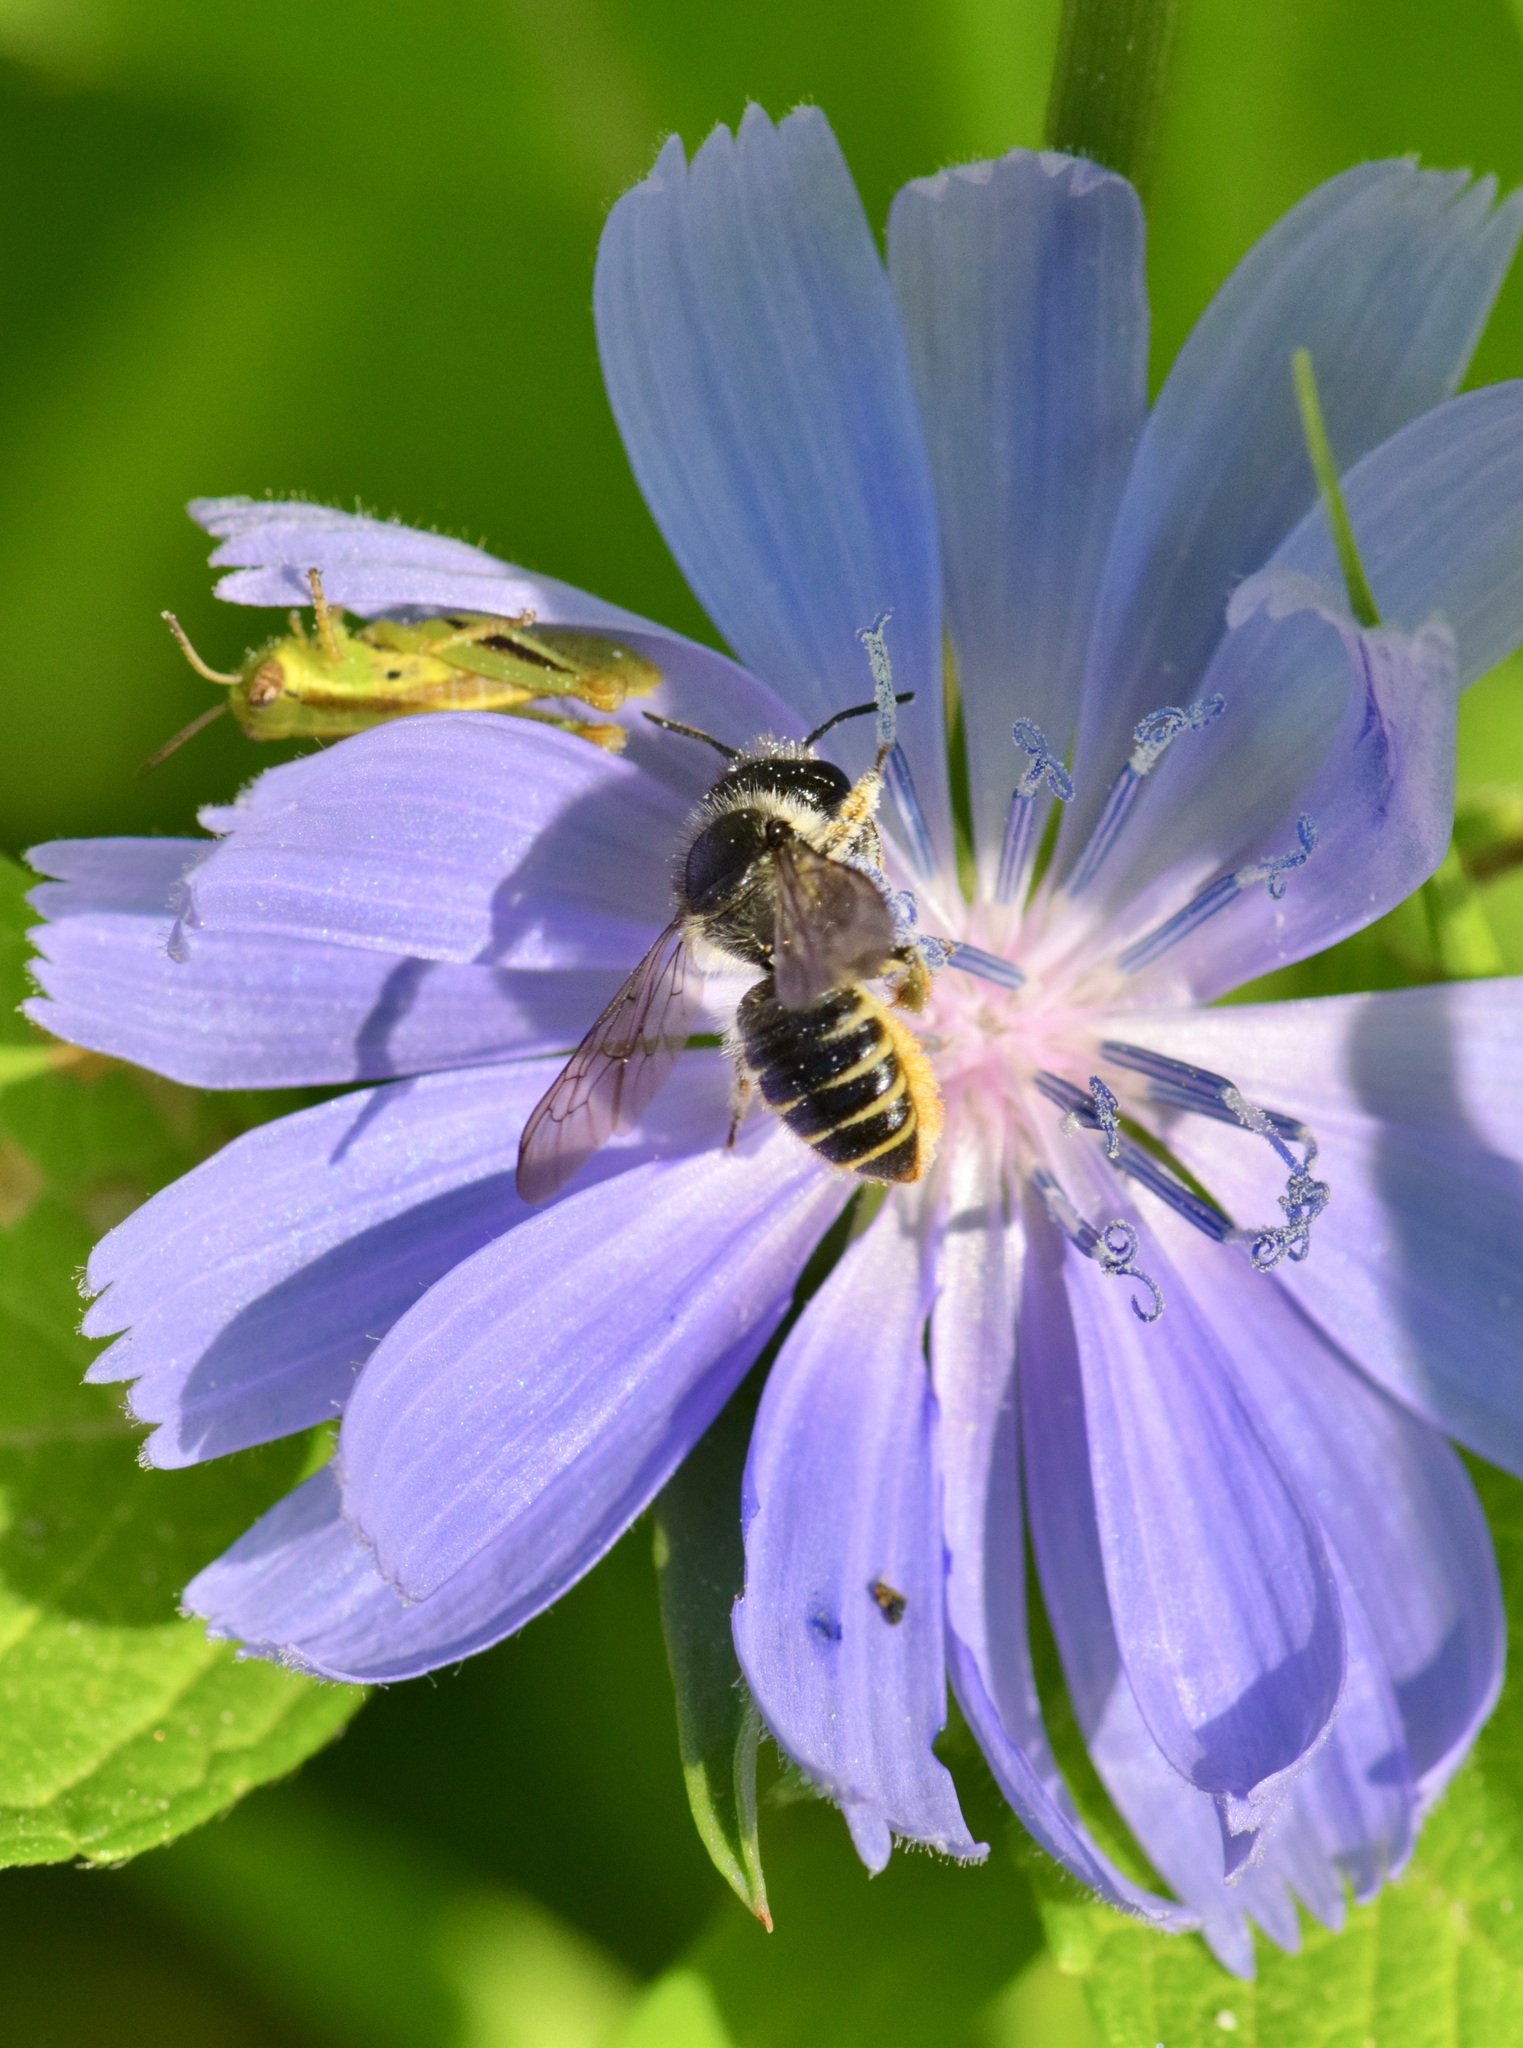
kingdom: Animalia
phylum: Arthropoda
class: Insecta
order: Hymenoptera
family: Megachilidae
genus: Megachile
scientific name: Megachile relativa
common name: Golden-tailed leafcutter
